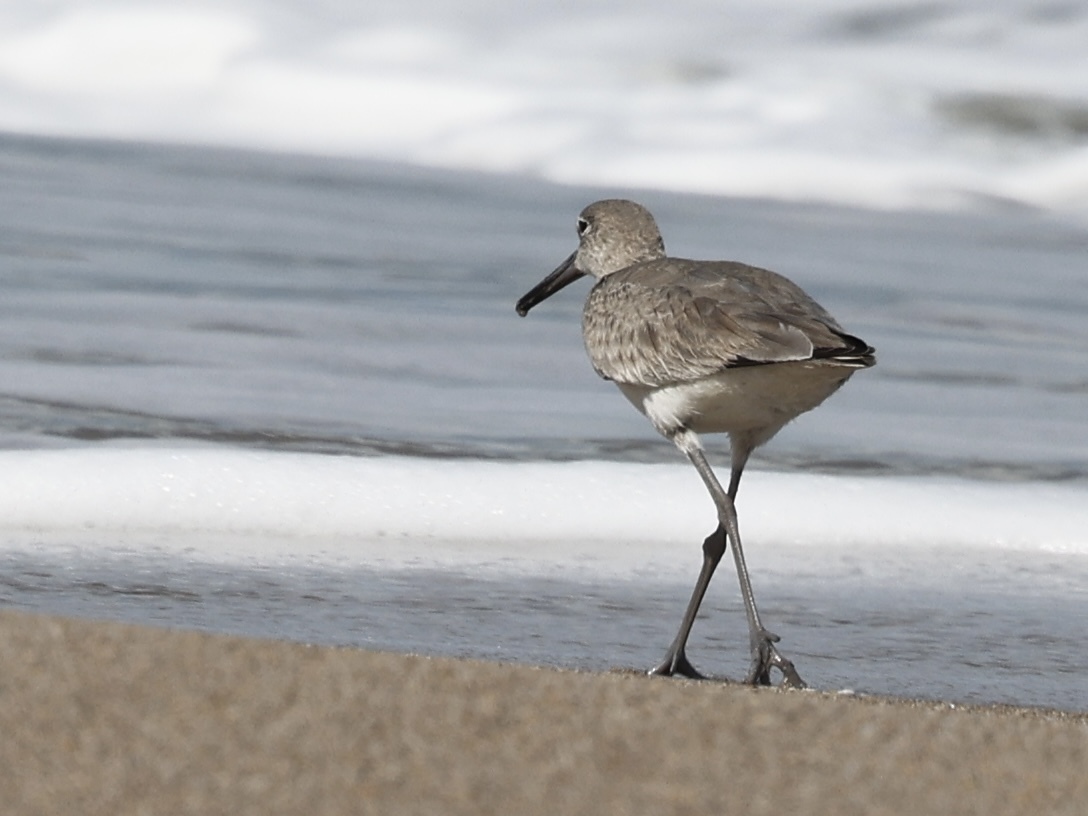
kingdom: Animalia
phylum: Chordata
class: Aves
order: Charadriiformes
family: Scolopacidae
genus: Tringa
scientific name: Tringa semipalmata
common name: Willet
